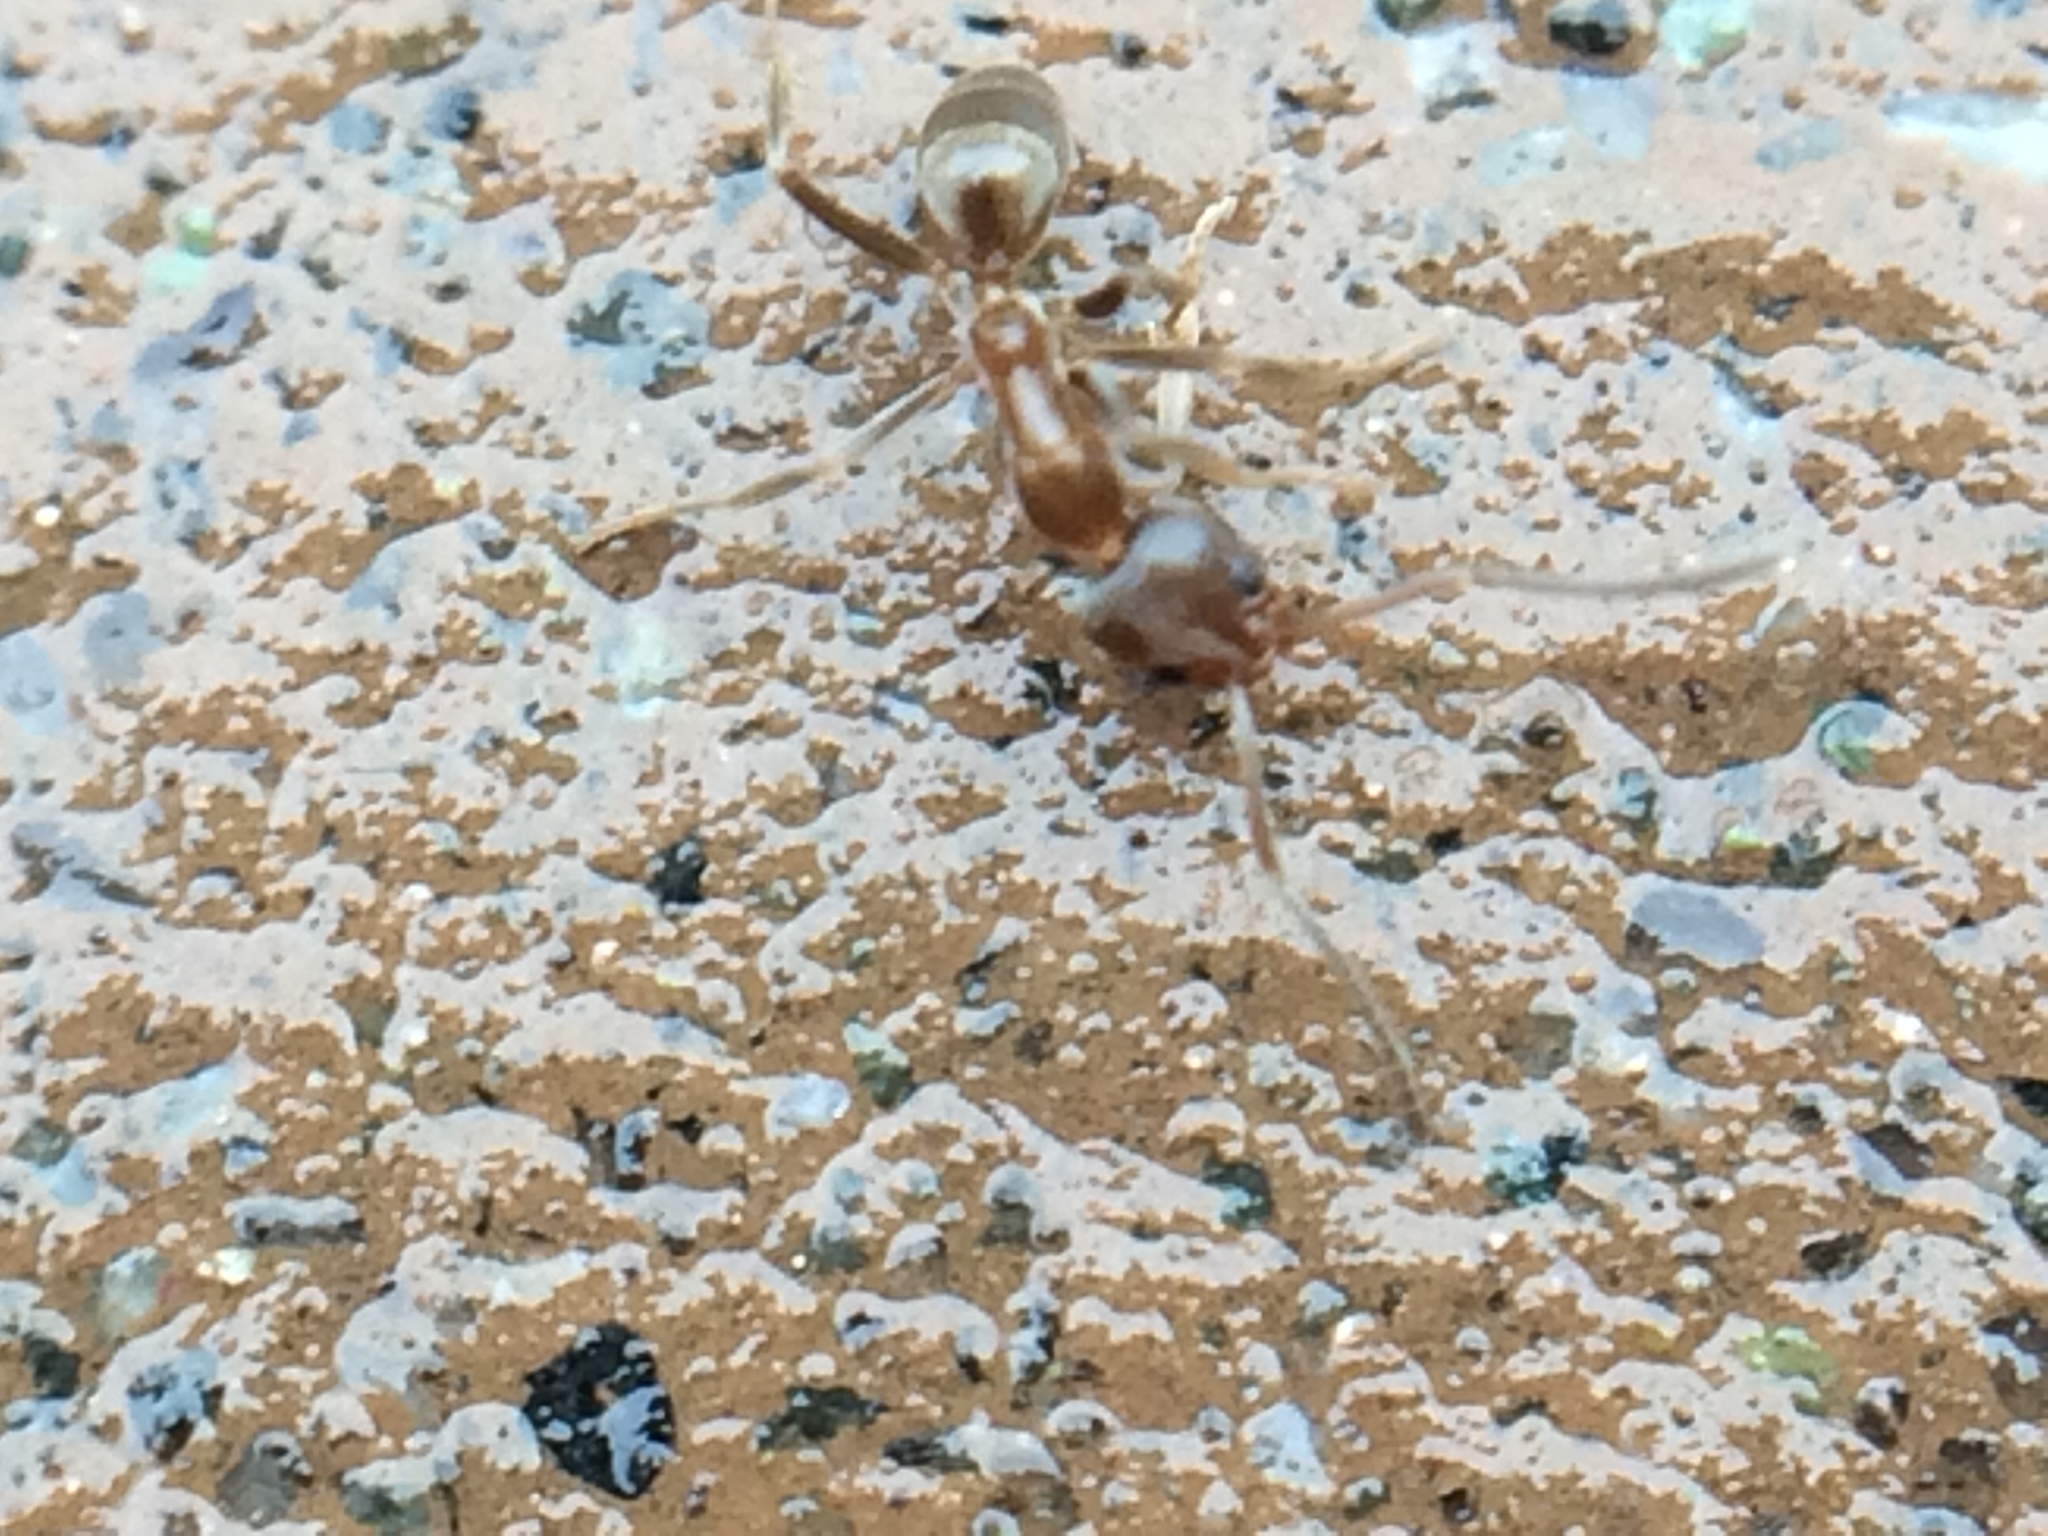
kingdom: Animalia
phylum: Arthropoda
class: Insecta
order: Hymenoptera
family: Formicidae
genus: Linepithema
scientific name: Linepithema humile
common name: Argentine ant
